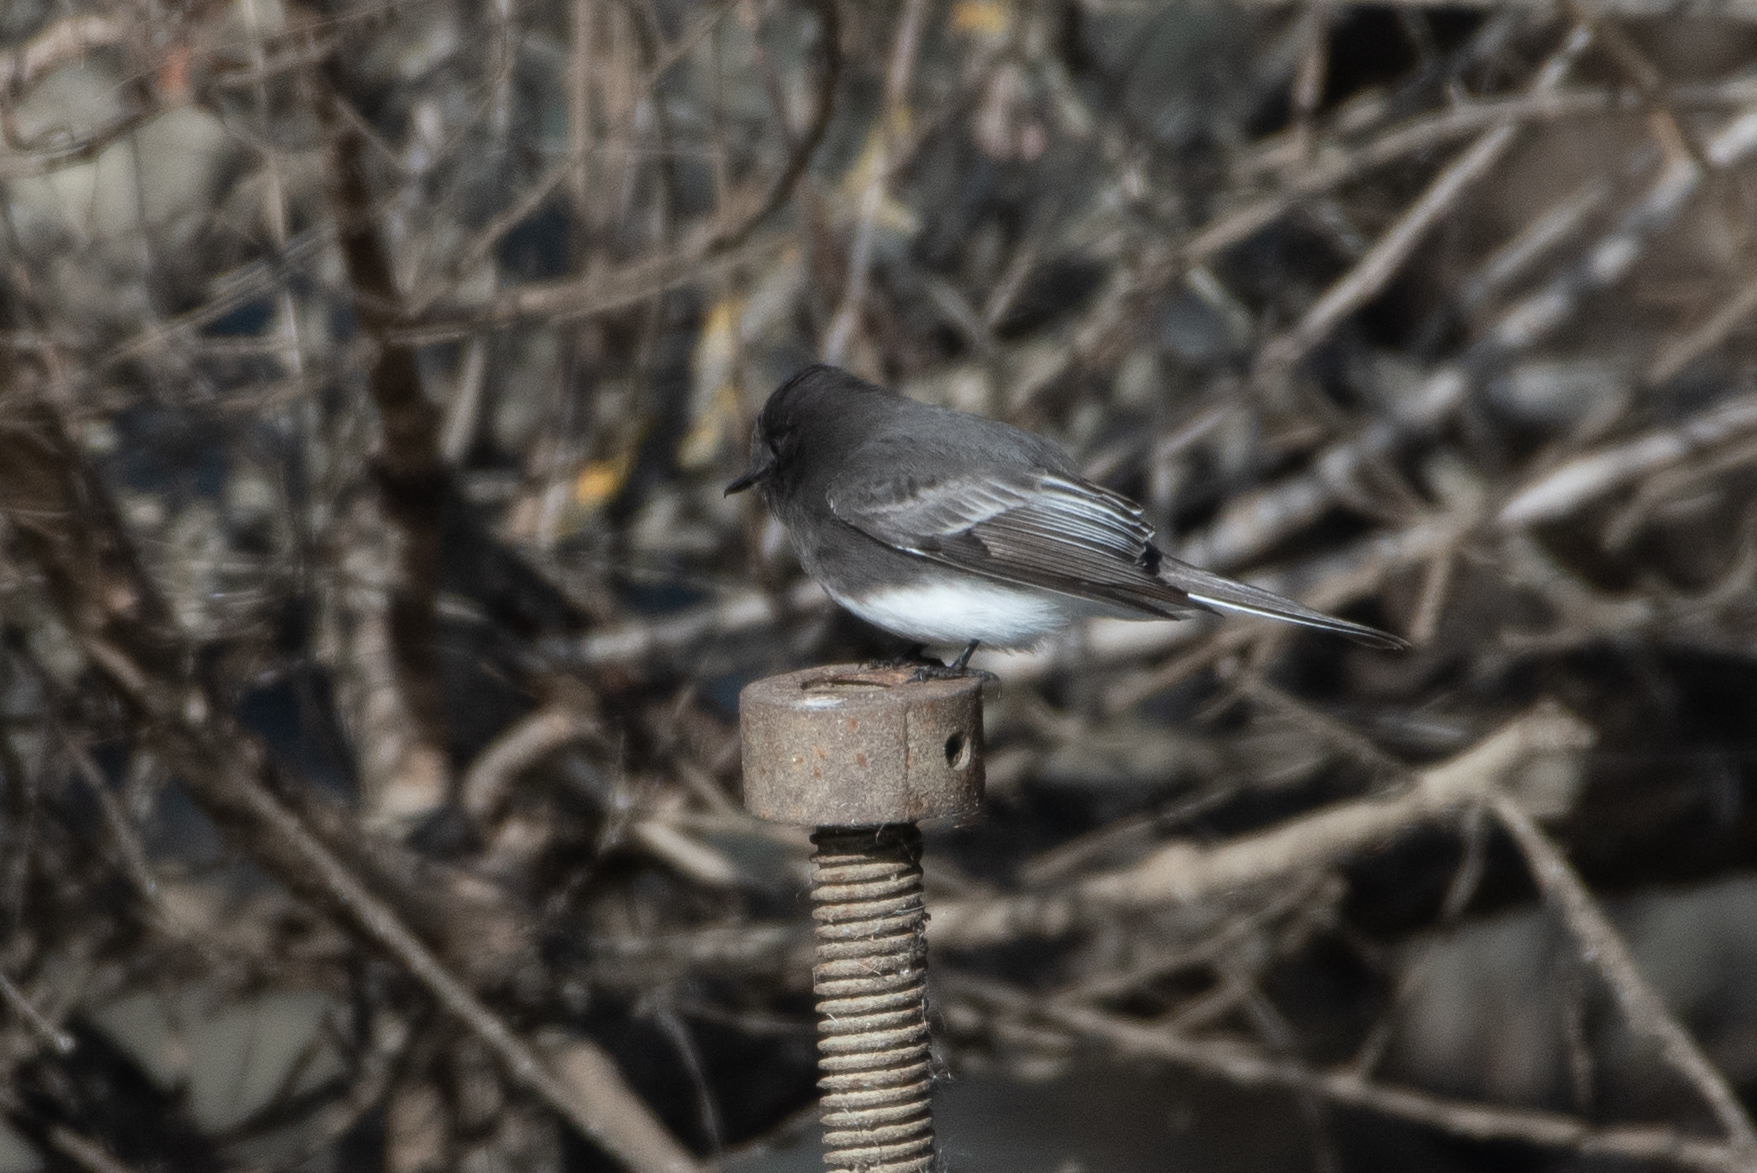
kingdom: Animalia
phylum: Chordata
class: Aves
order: Passeriformes
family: Tyrannidae
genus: Sayornis
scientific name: Sayornis nigricans
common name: Black phoebe
